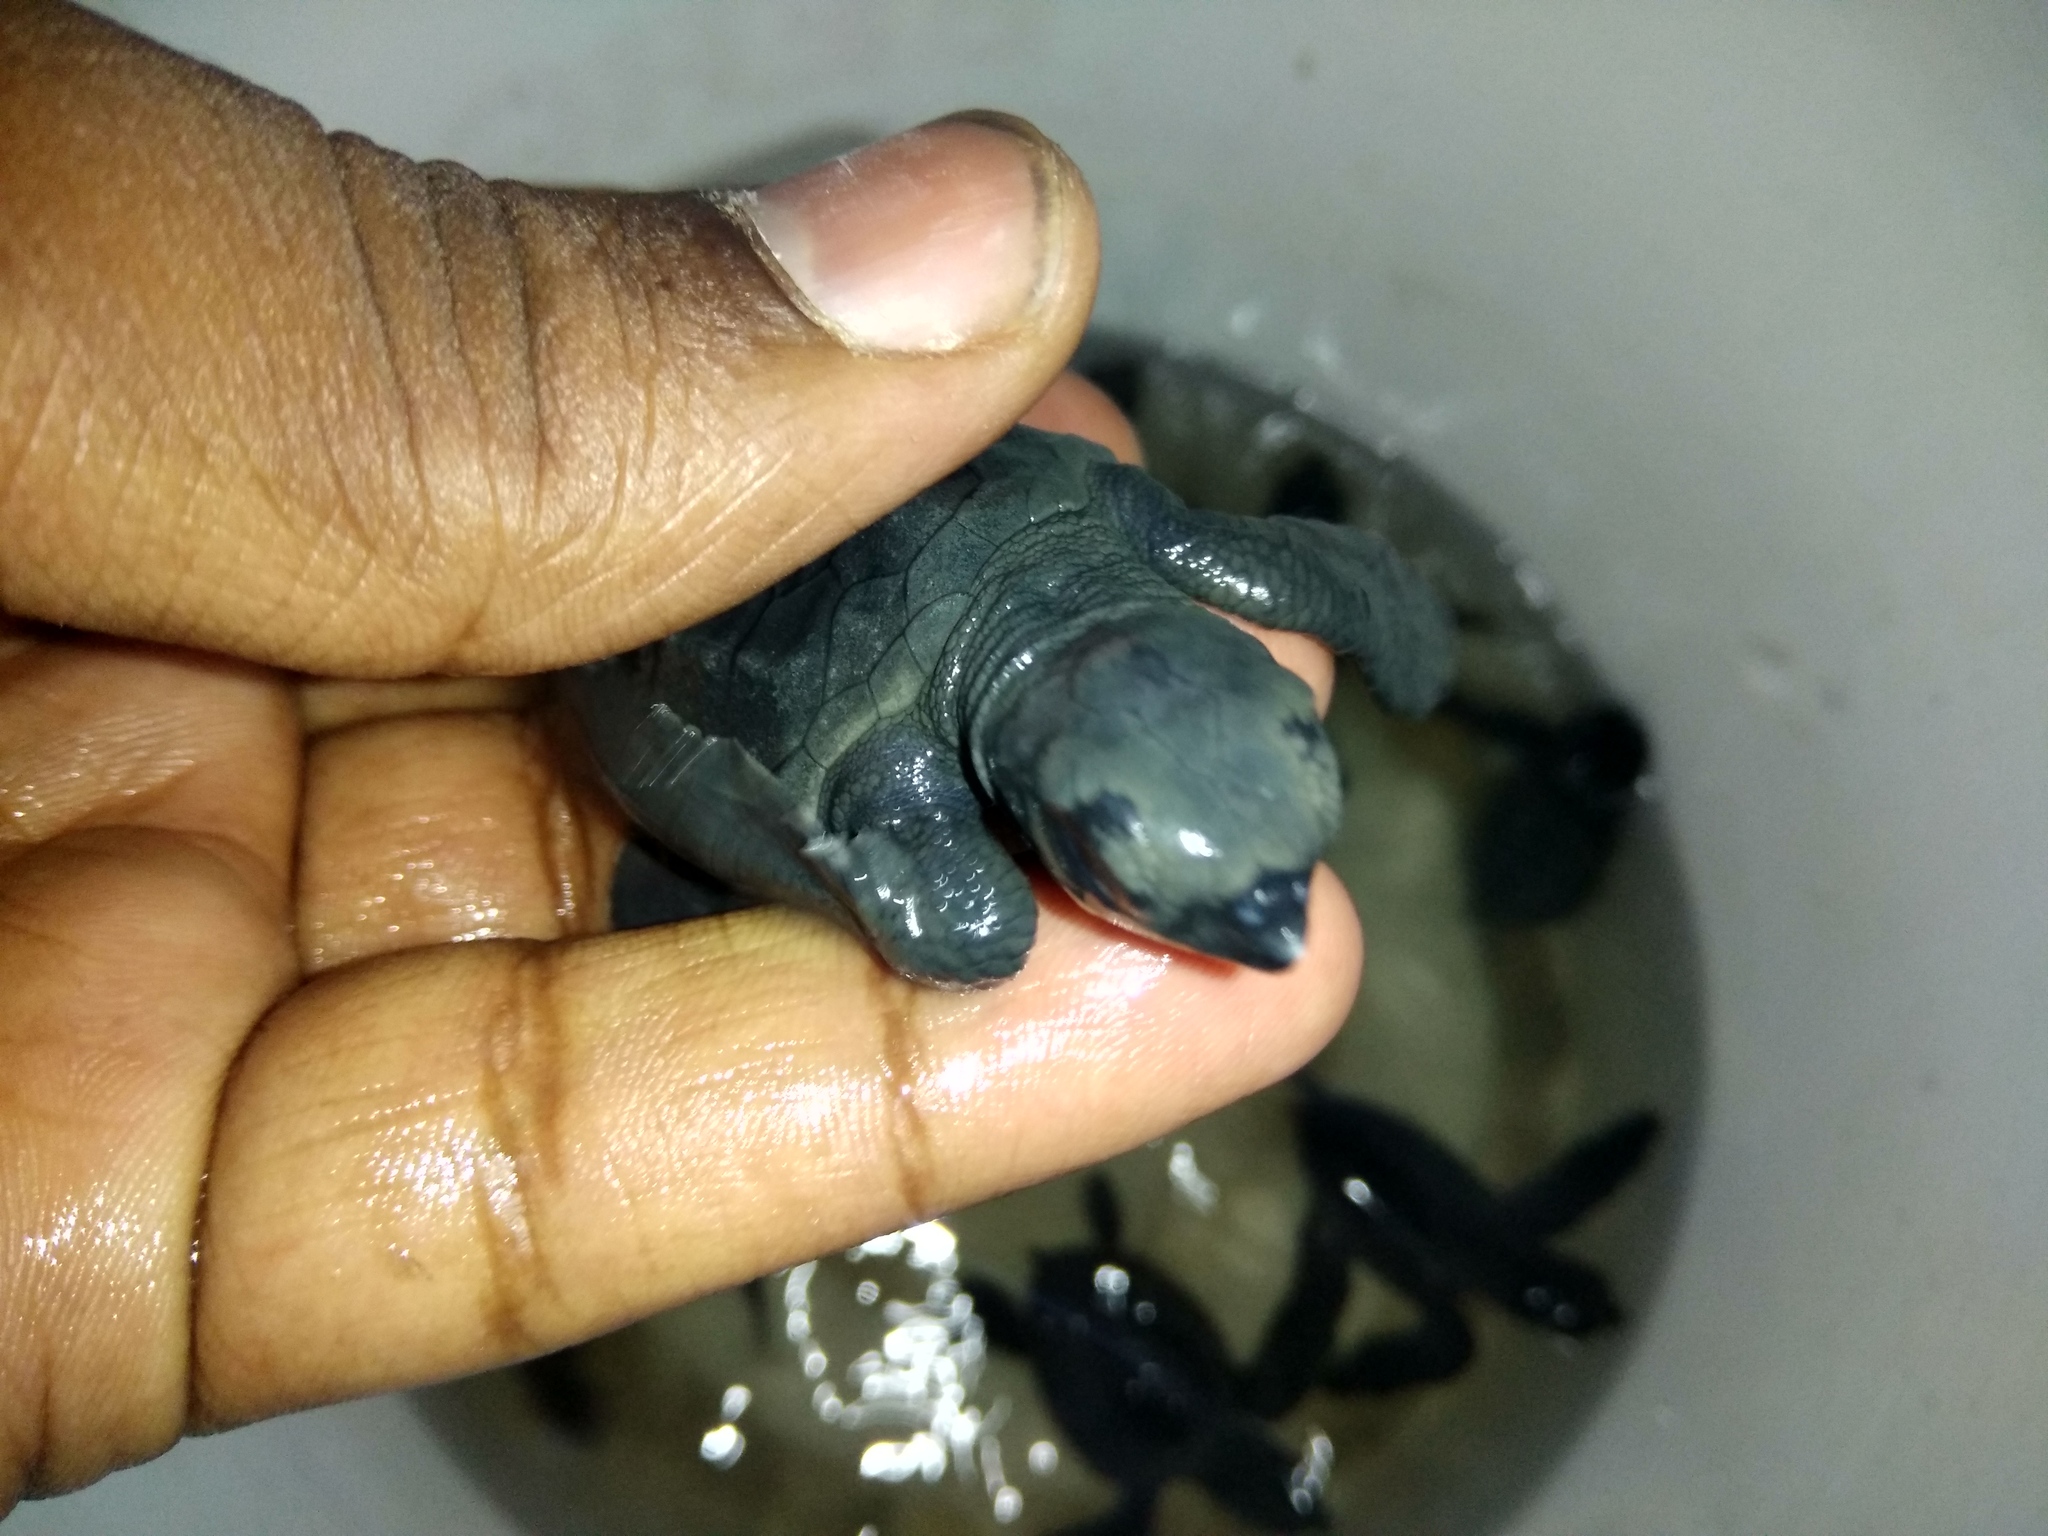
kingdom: Animalia
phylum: Chordata
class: Testudines
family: Cheloniidae
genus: Lepidochelys
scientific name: Lepidochelys olivacea
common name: Olive ridley
